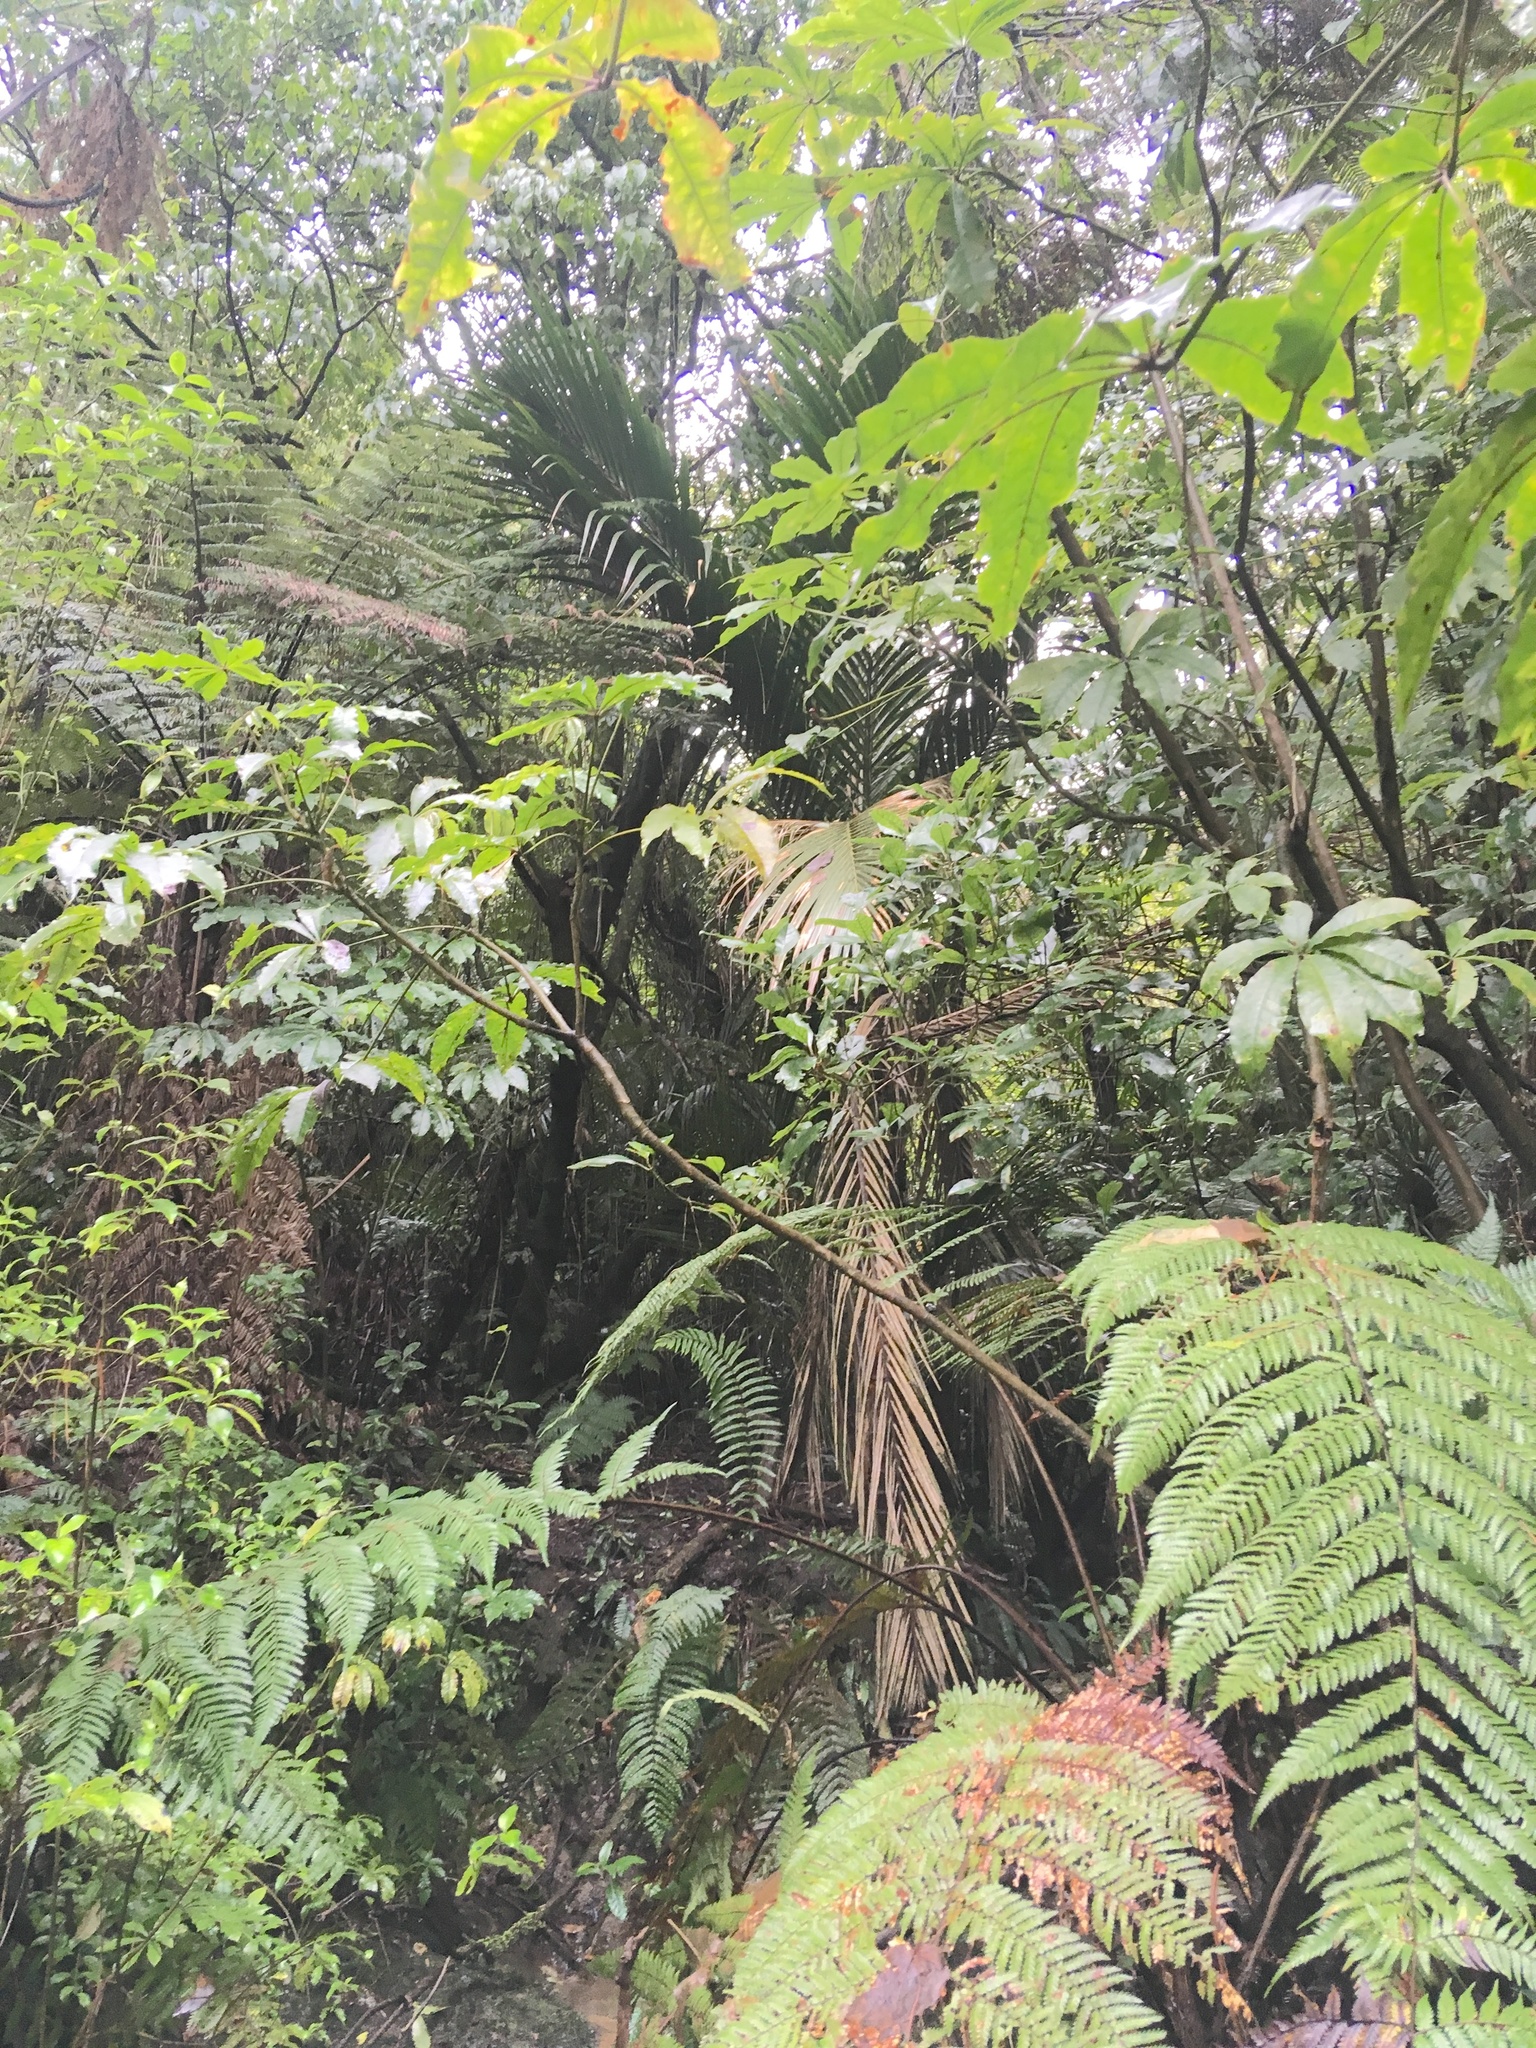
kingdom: Plantae
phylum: Tracheophyta
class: Liliopsida
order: Arecales
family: Arecaceae
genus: Rhopalostylis
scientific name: Rhopalostylis sapida
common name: Feather-duster palm
